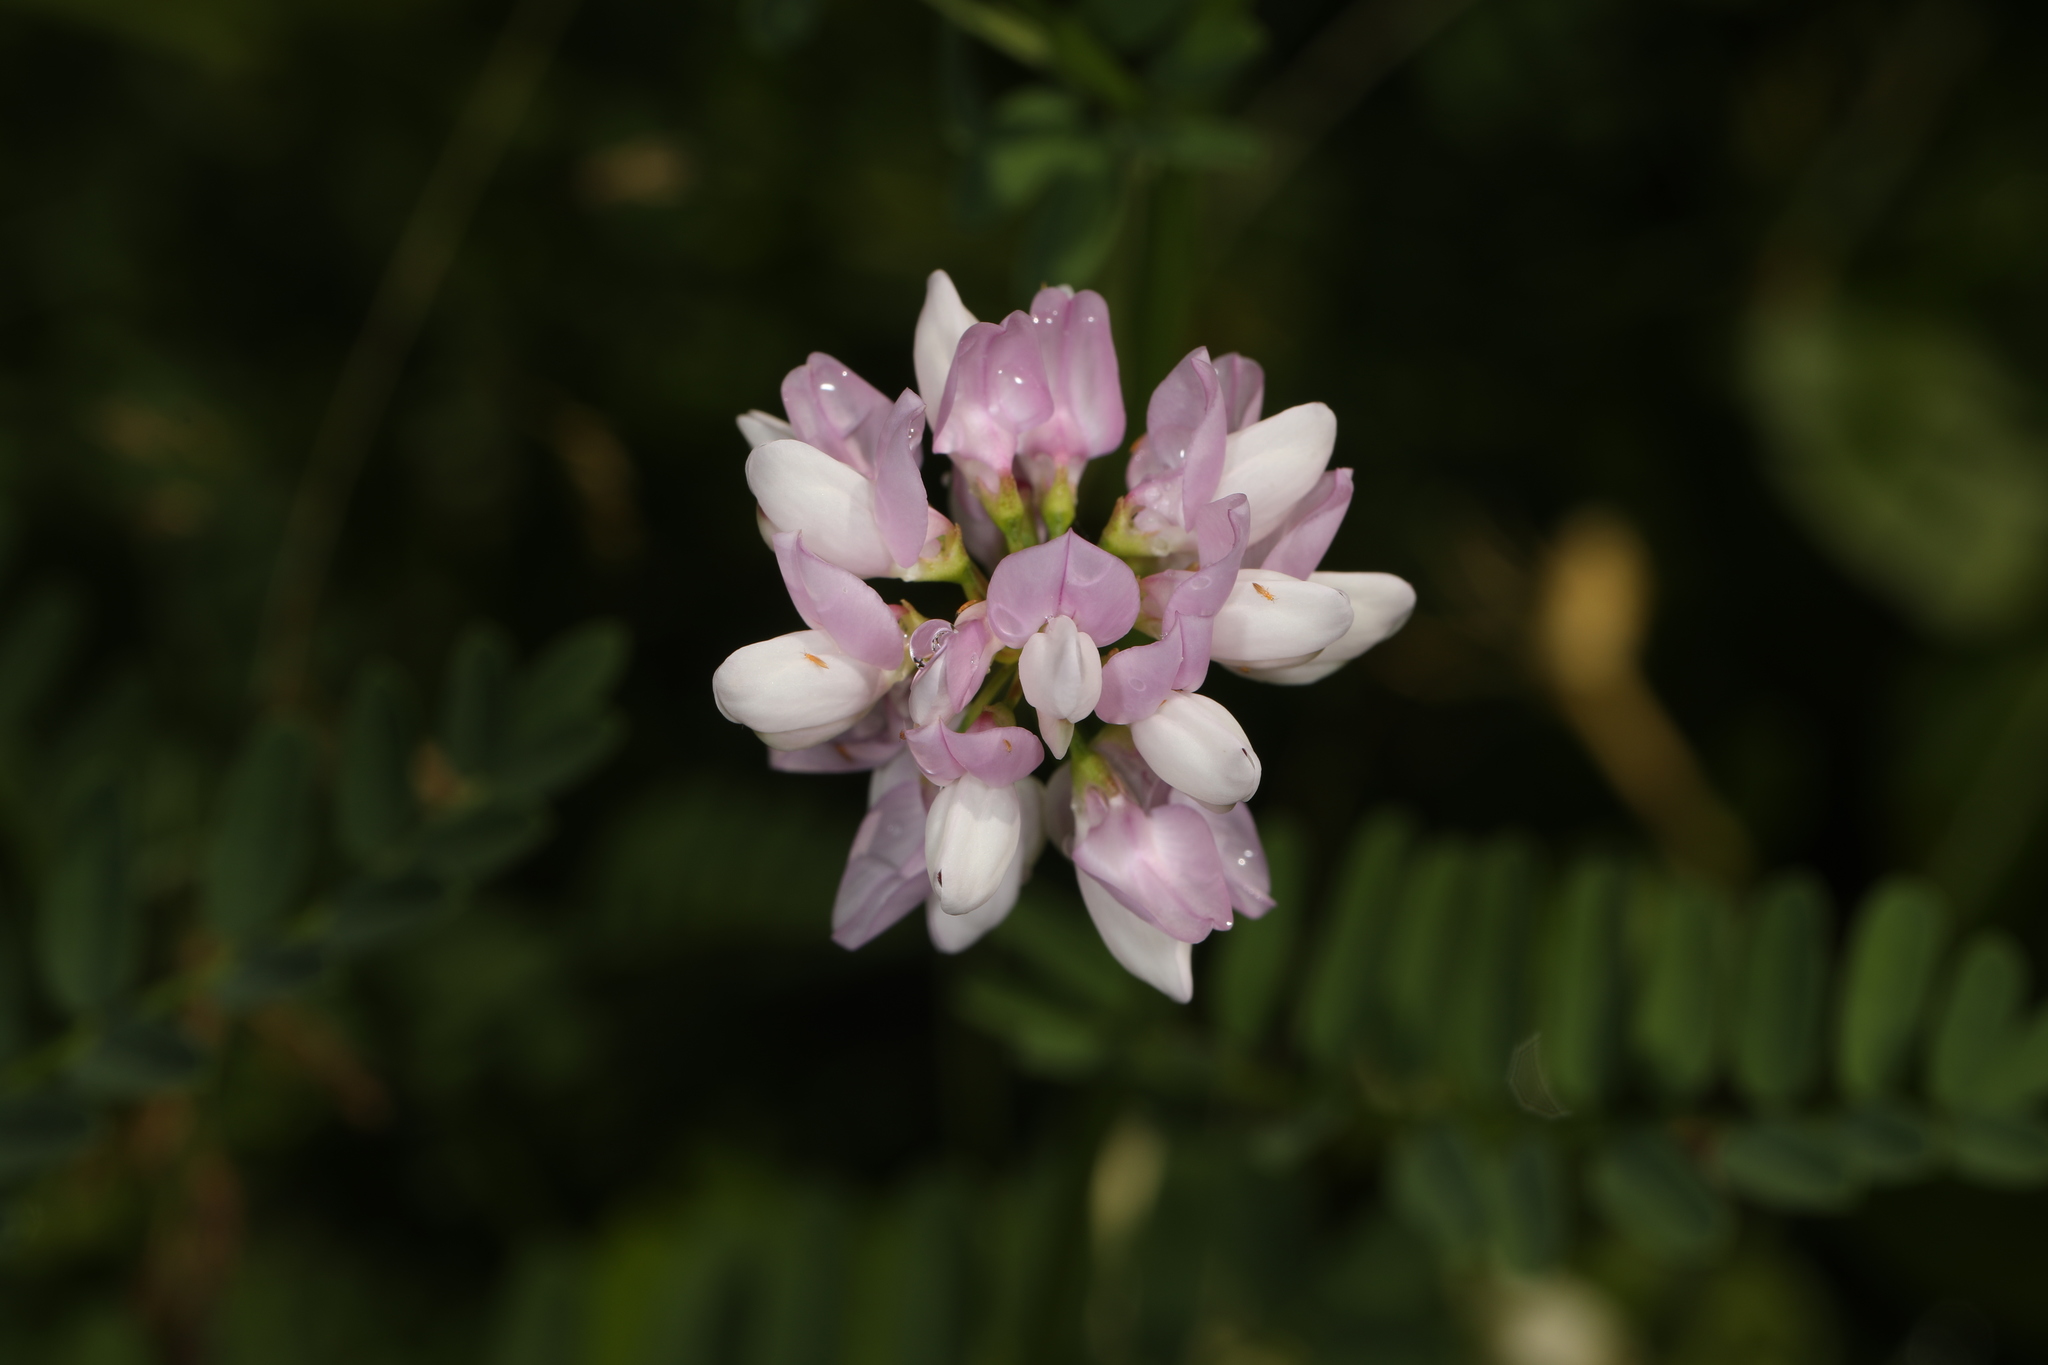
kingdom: Plantae
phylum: Tracheophyta
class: Magnoliopsida
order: Fabales
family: Fabaceae
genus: Coronilla
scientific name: Coronilla varia
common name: Crownvetch
